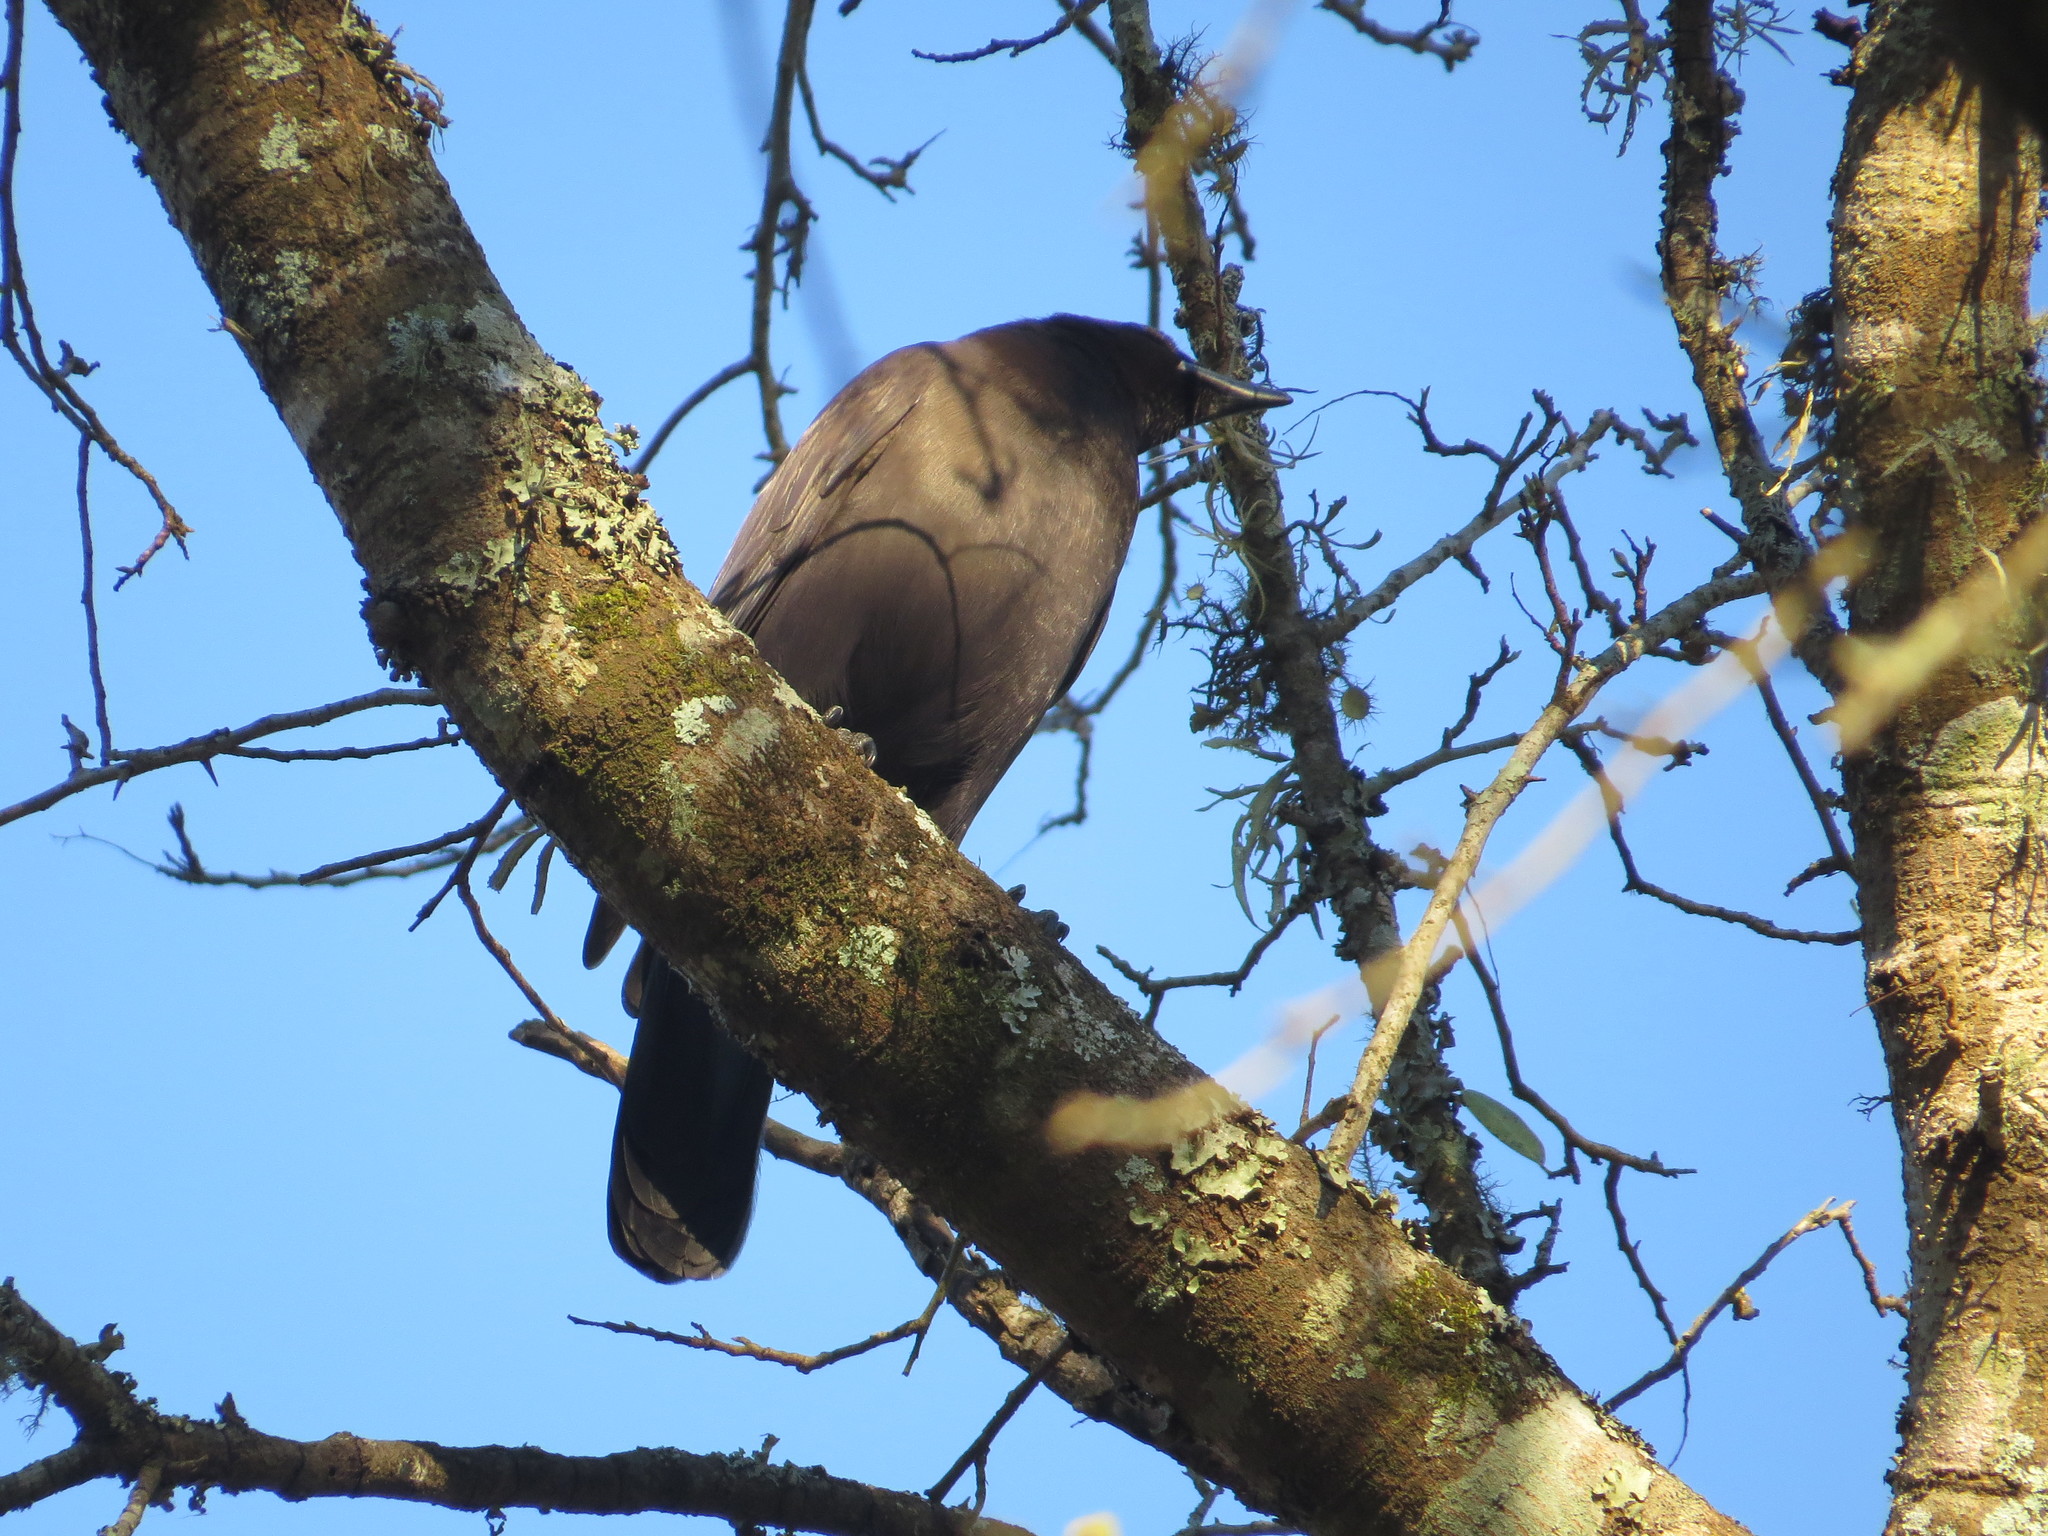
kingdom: Animalia
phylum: Chordata
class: Aves
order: Passeriformes
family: Corvidae
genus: Cyanocorax
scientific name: Cyanocorax cyanomelas
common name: Purplish jay
